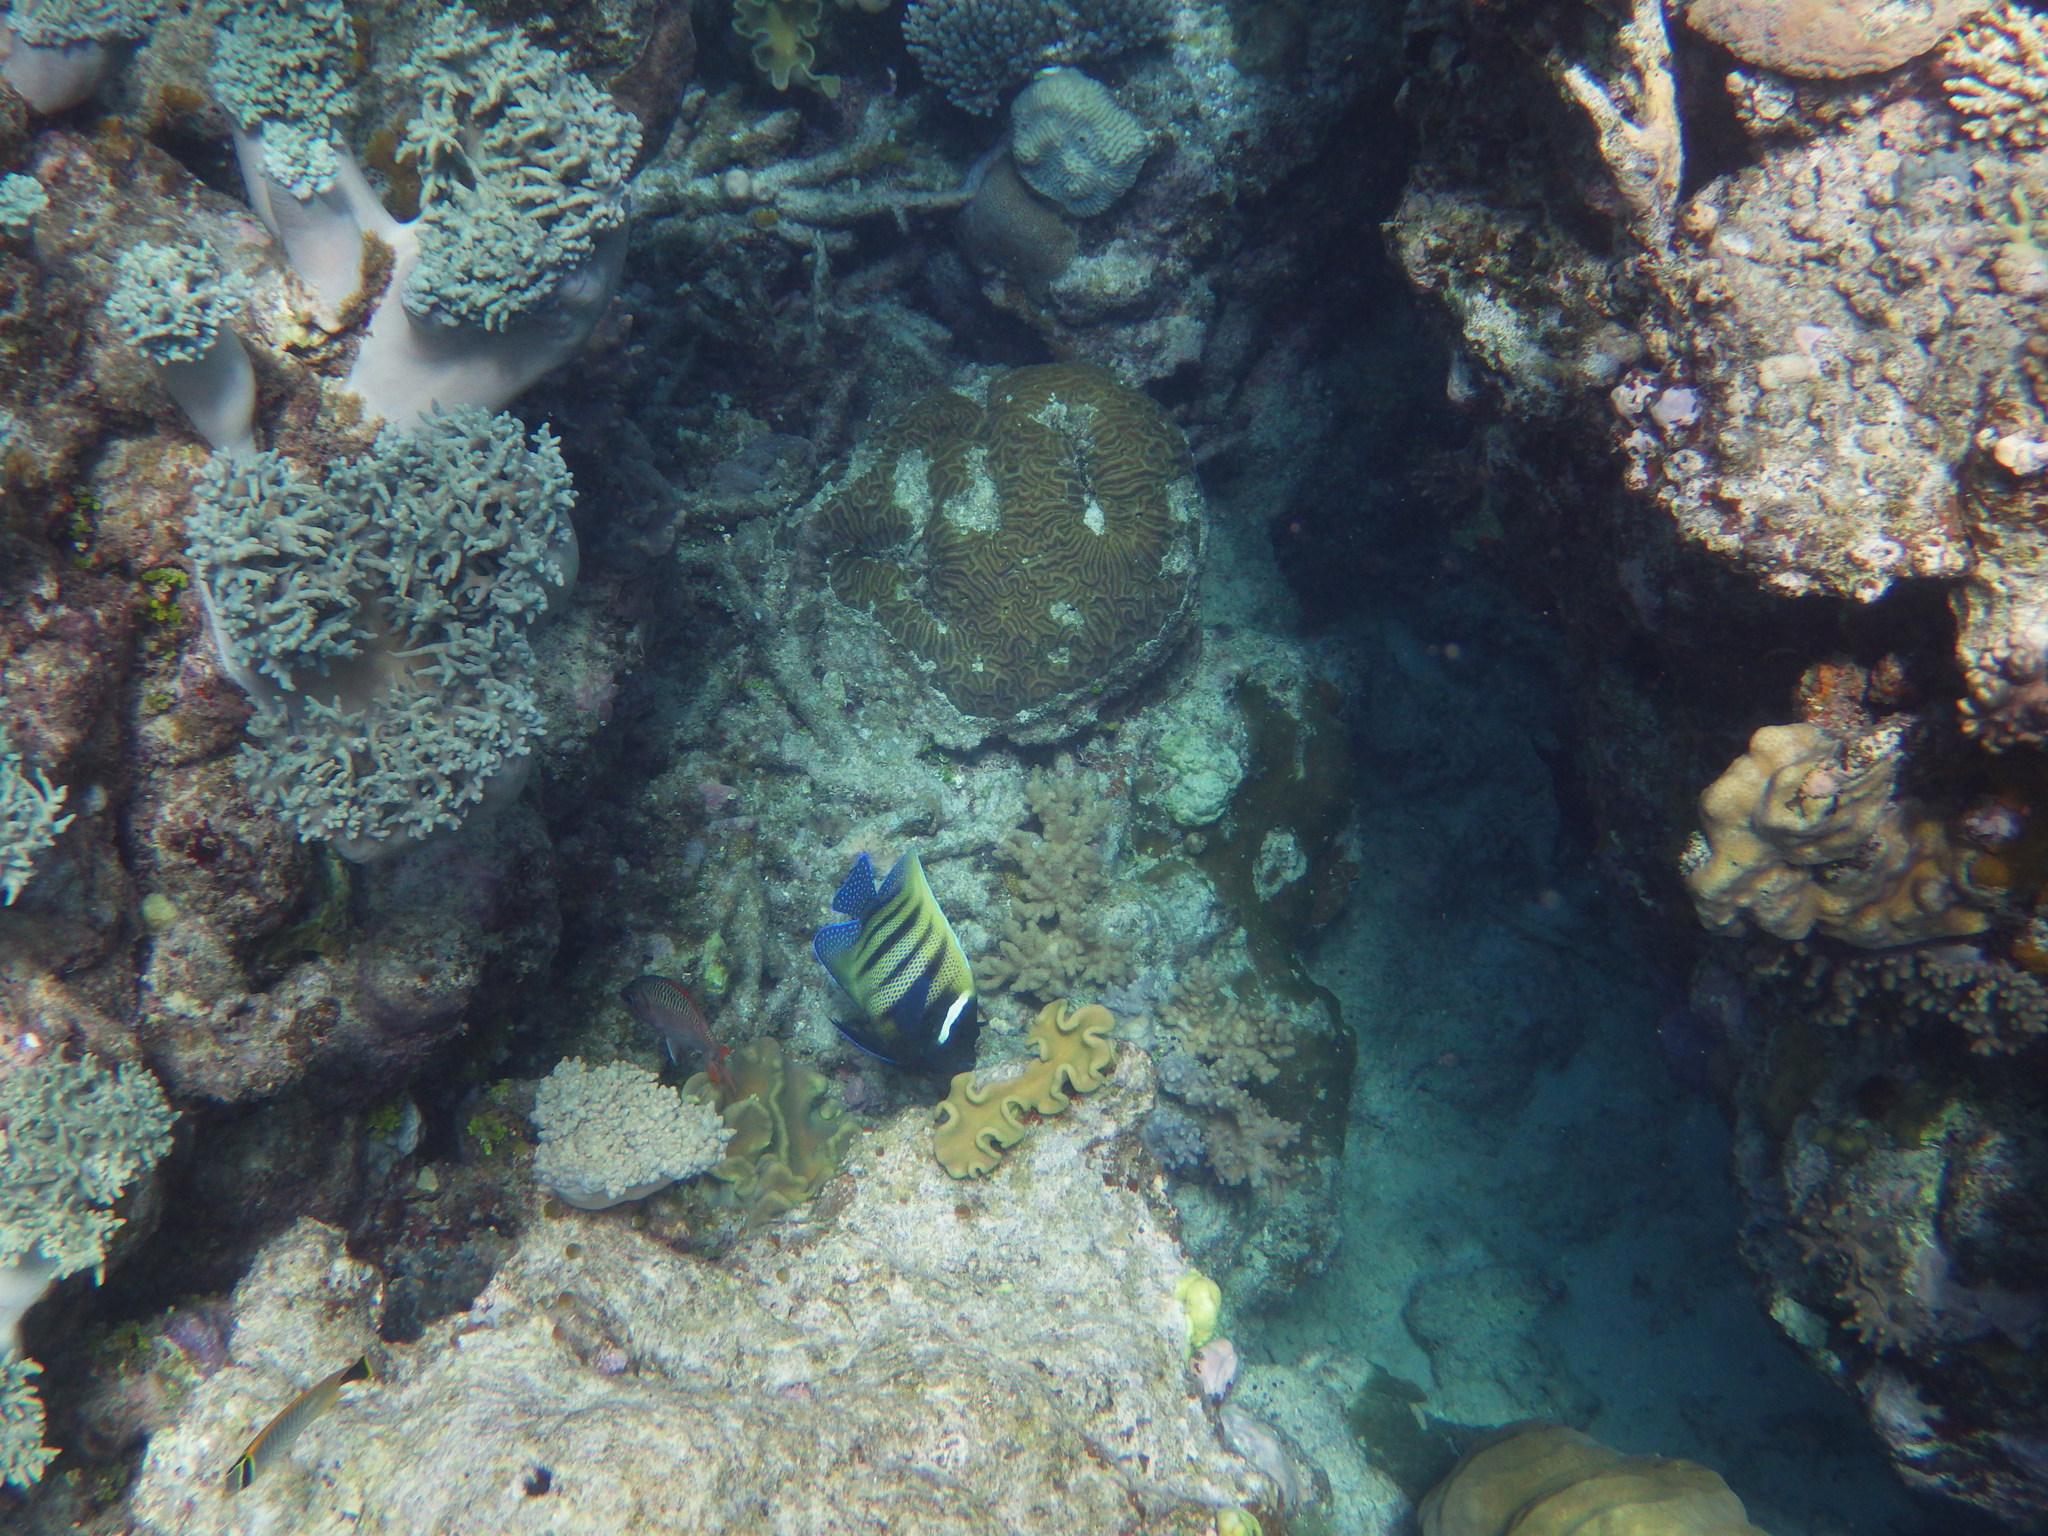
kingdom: Animalia
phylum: Chordata
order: Perciformes
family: Pomacanthidae
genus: Pomacanthus
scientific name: Pomacanthus sexstriatus
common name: Six-banded angelfish
